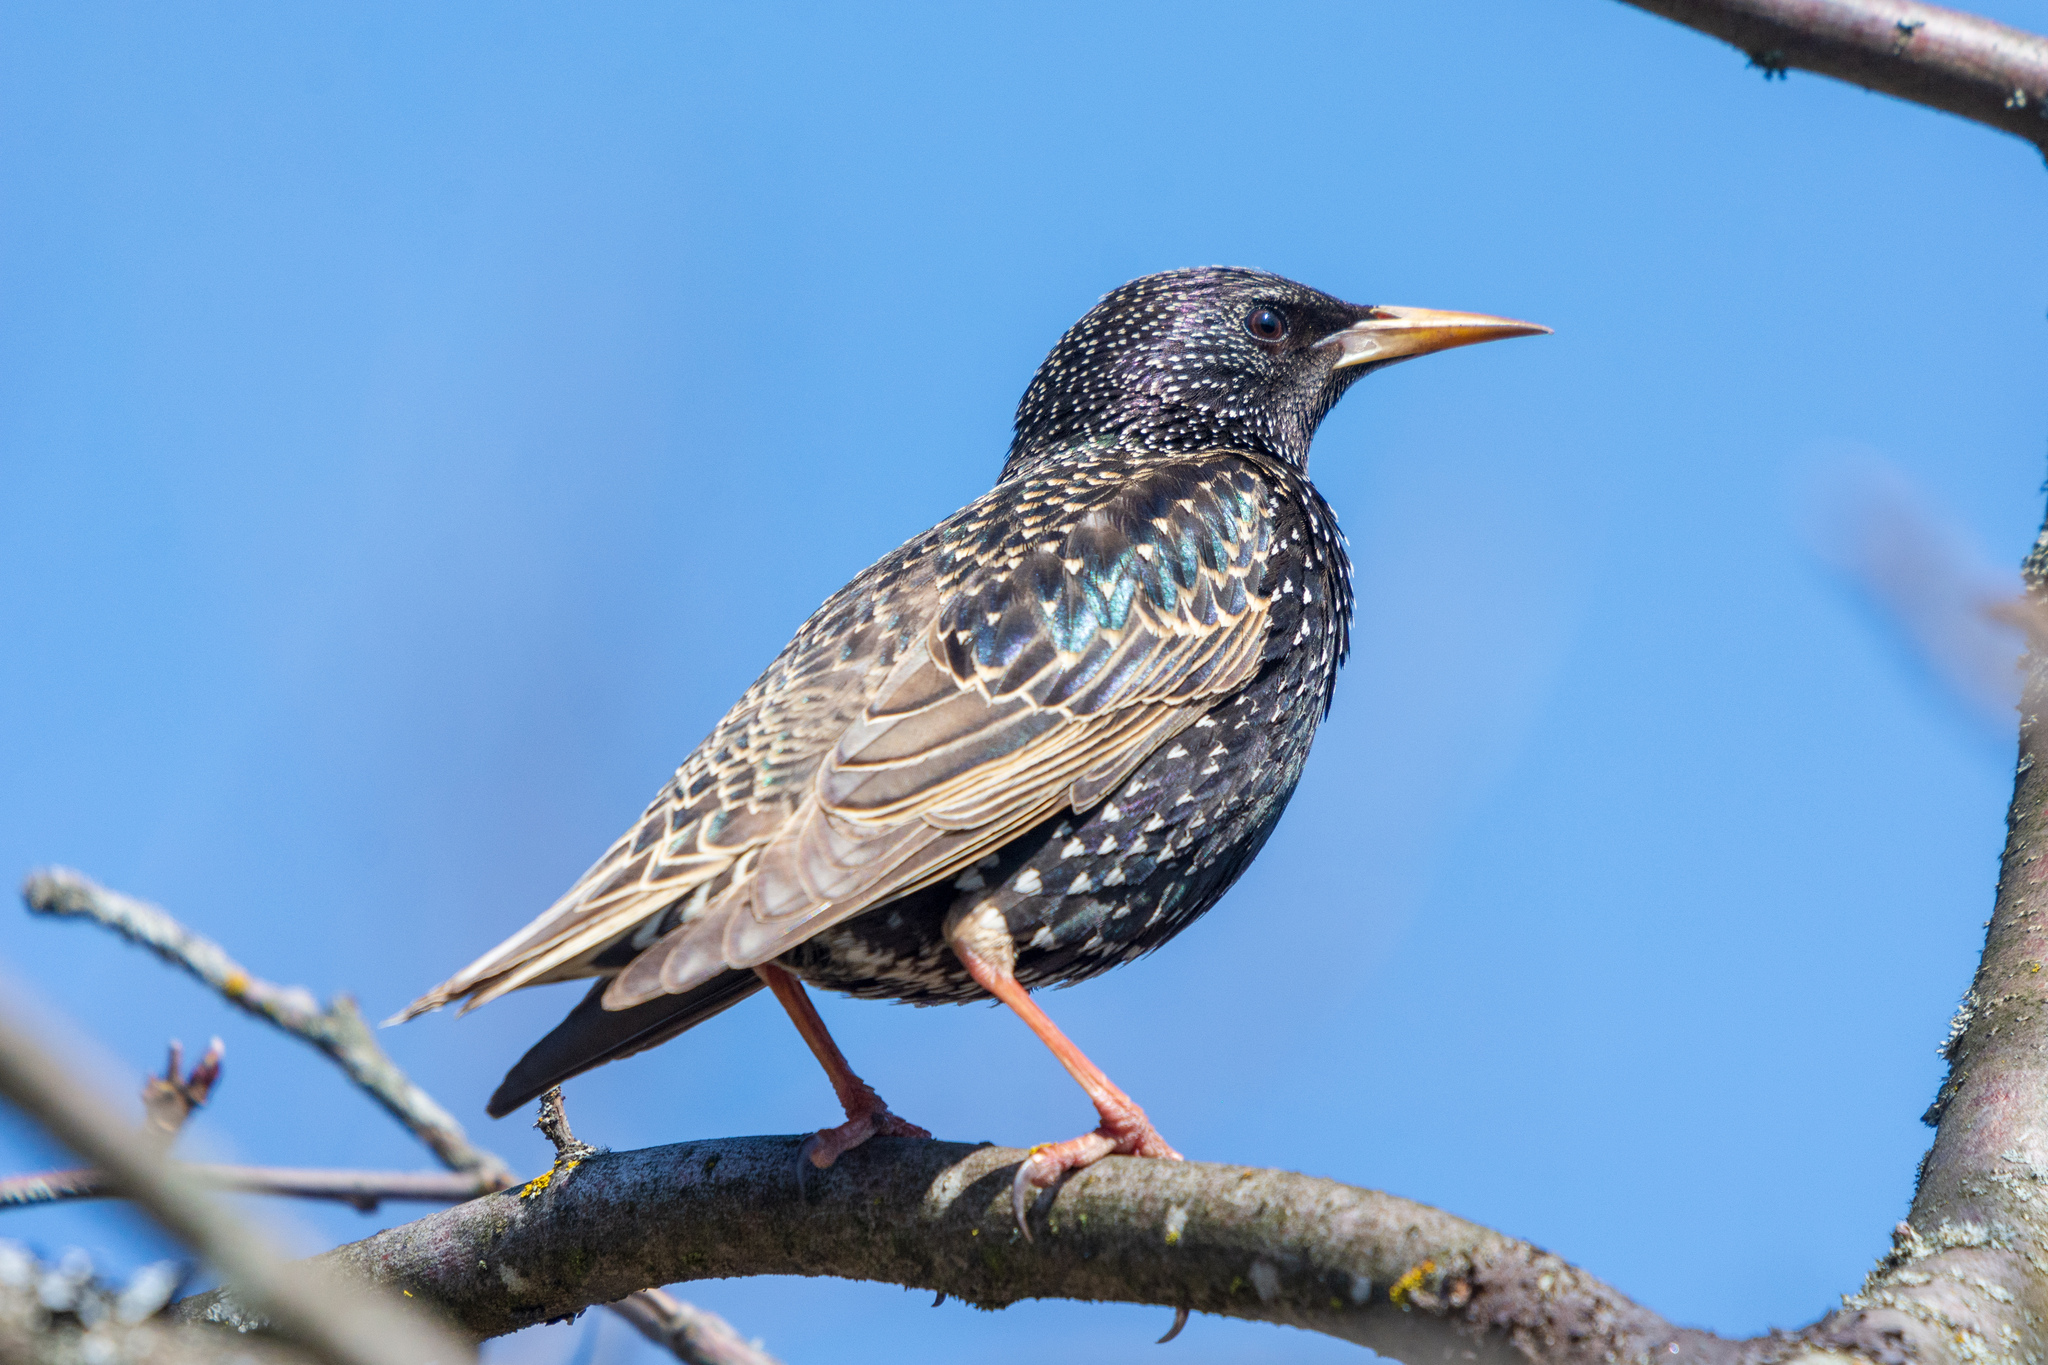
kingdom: Animalia
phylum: Chordata
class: Aves
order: Passeriformes
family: Sturnidae
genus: Sturnus
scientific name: Sturnus vulgaris
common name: Common starling
